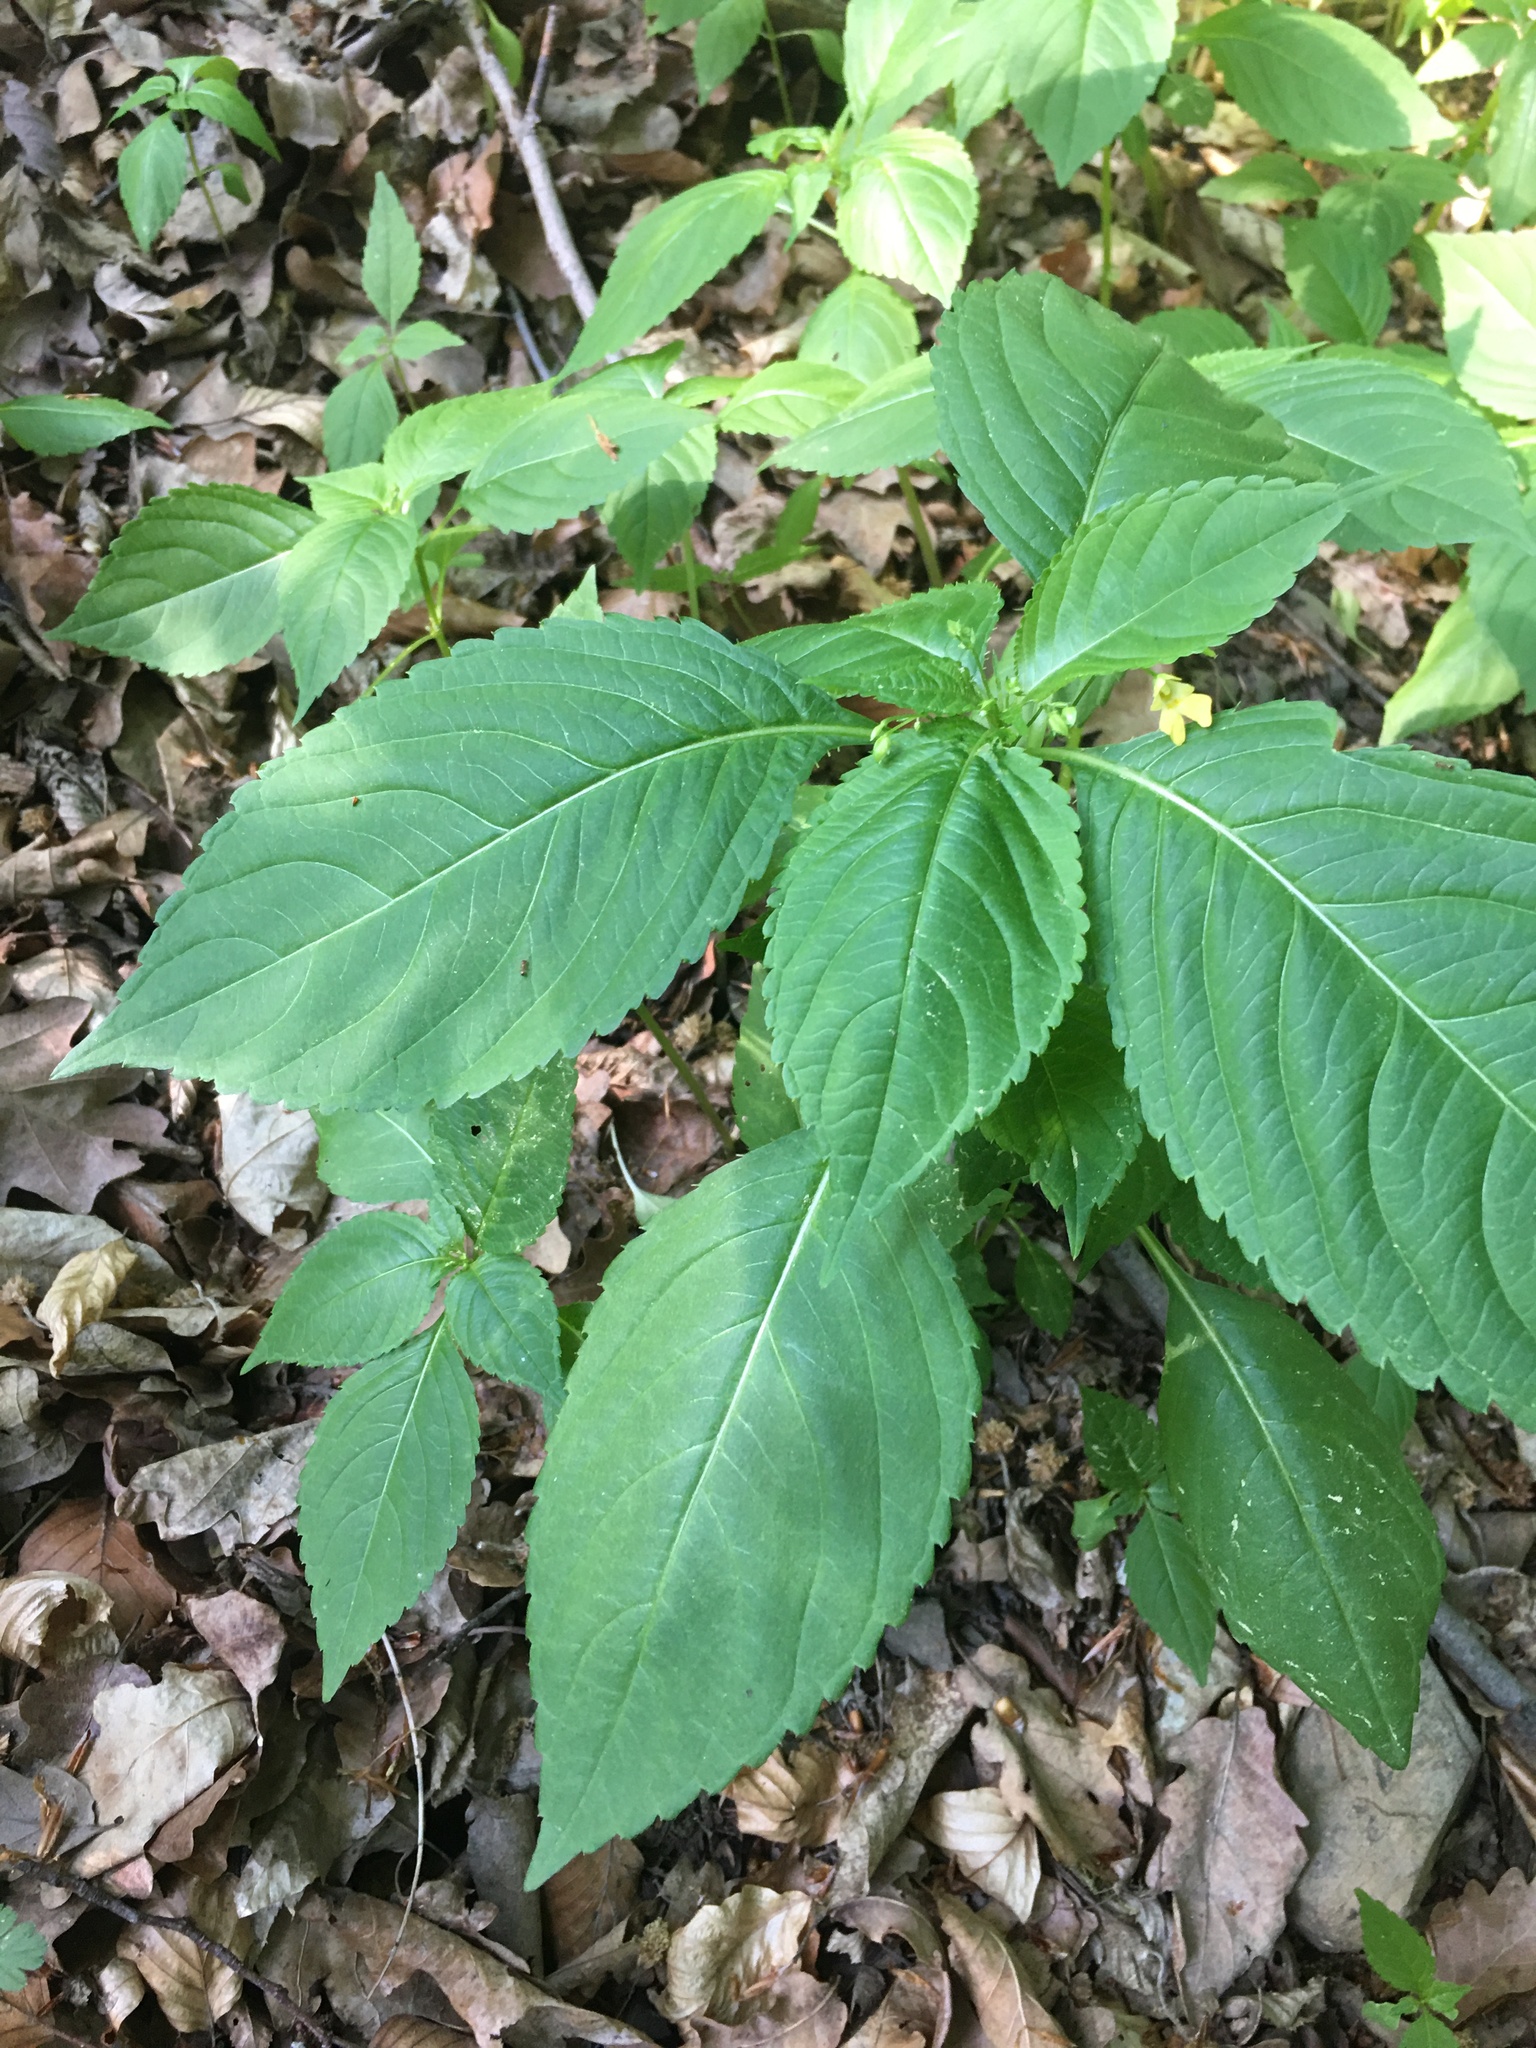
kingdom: Plantae
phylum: Tracheophyta
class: Magnoliopsida
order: Ericales
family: Balsaminaceae
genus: Impatiens
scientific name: Impatiens parviflora
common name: Small balsam
